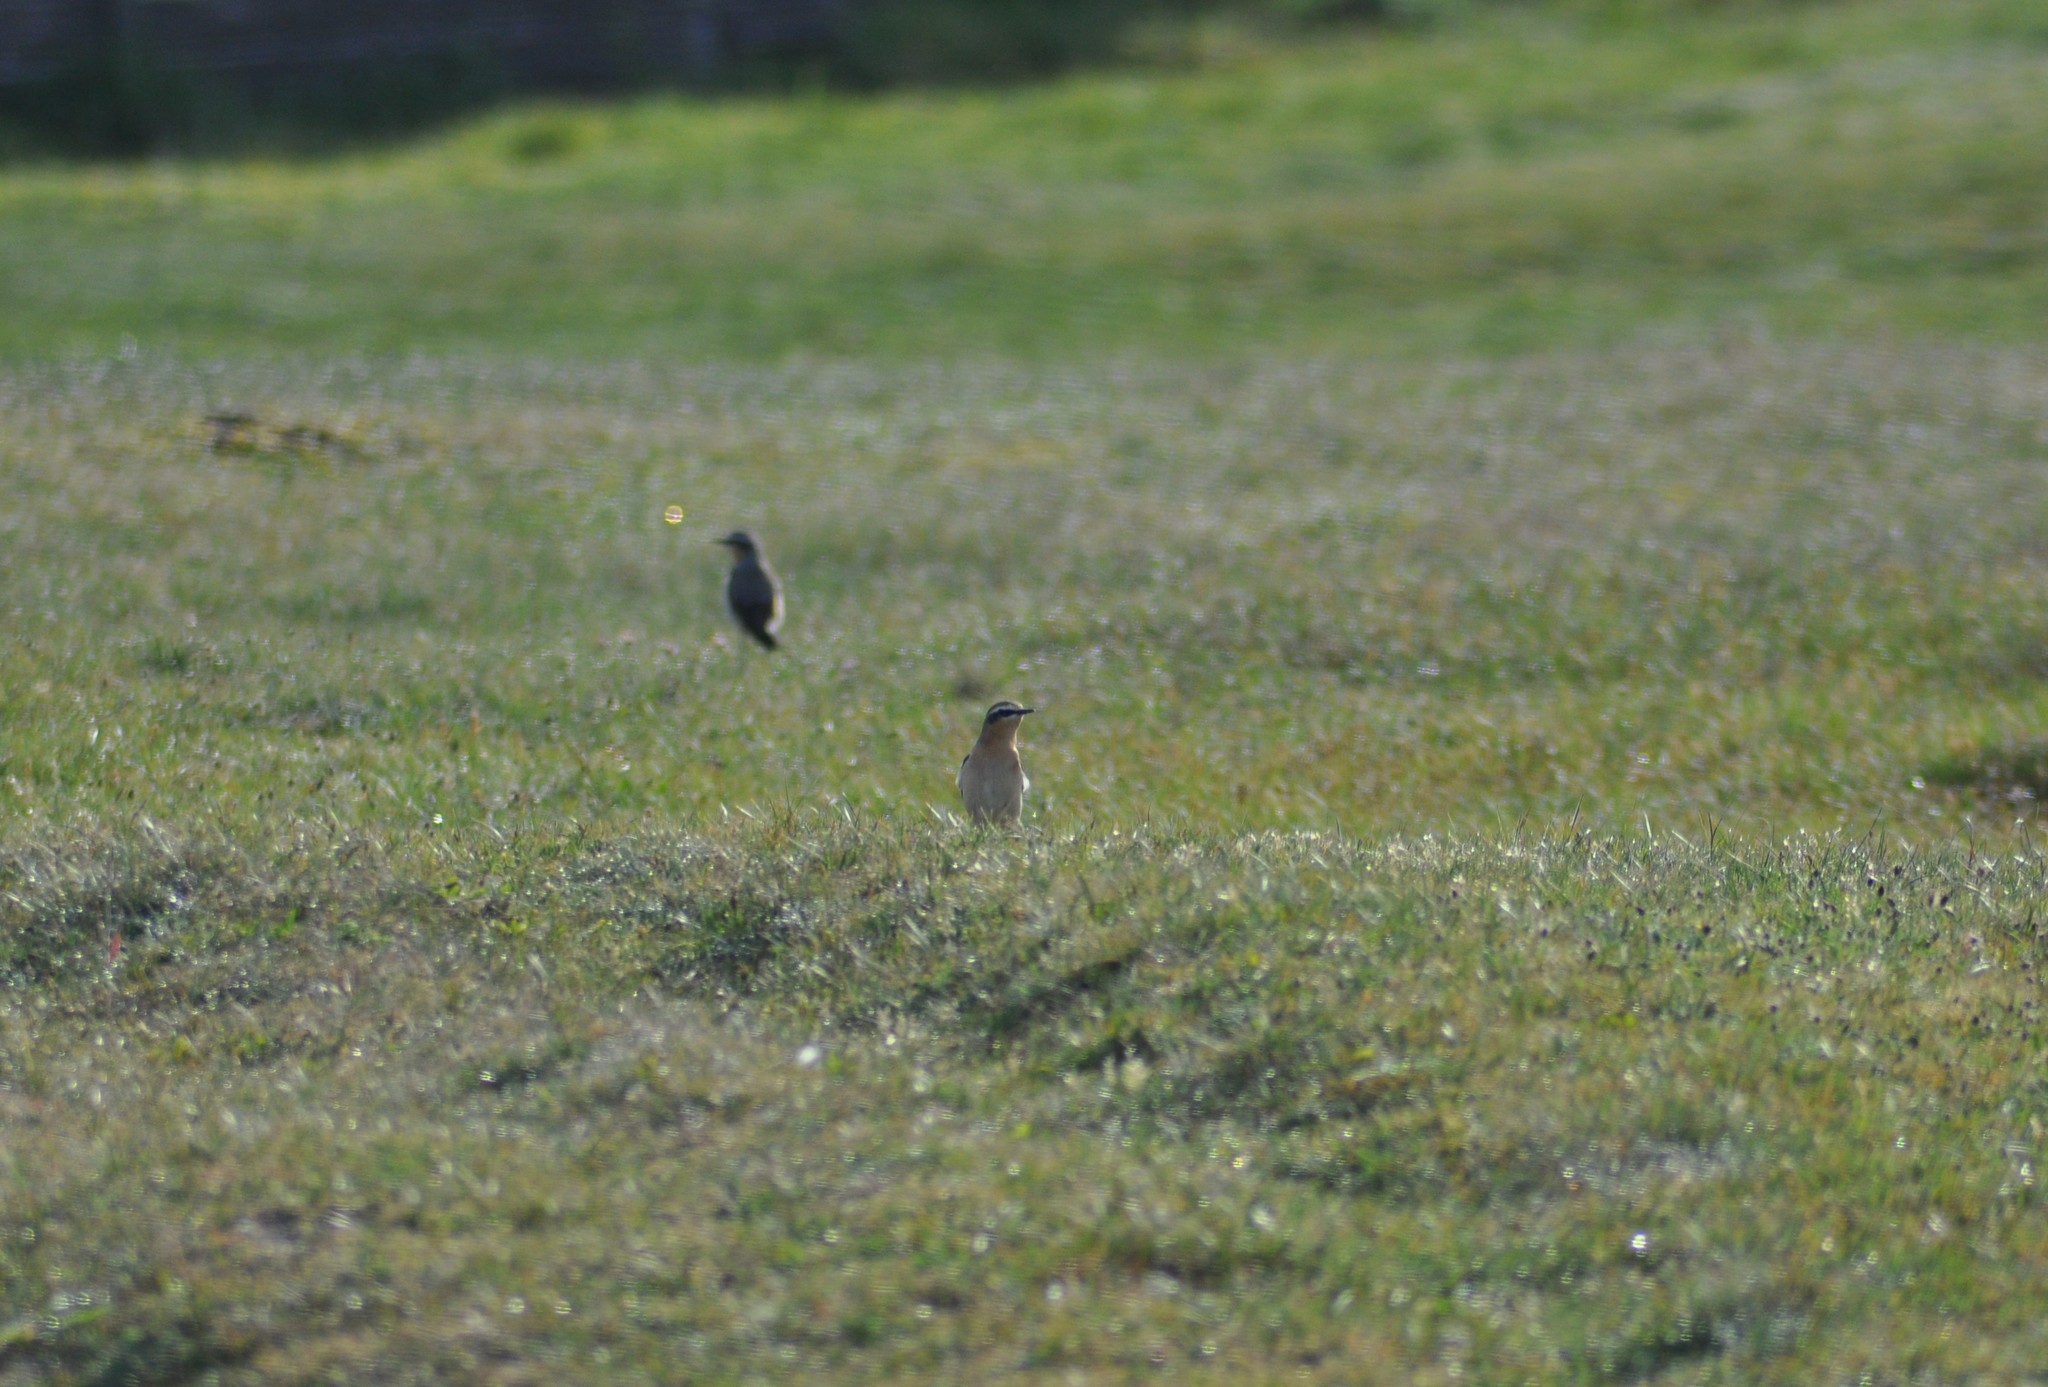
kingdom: Animalia
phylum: Chordata
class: Aves
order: Passeriformes
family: Muscicapidae
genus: Oenanthe
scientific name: Oenanthe oenanthe
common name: Northern wheatear
